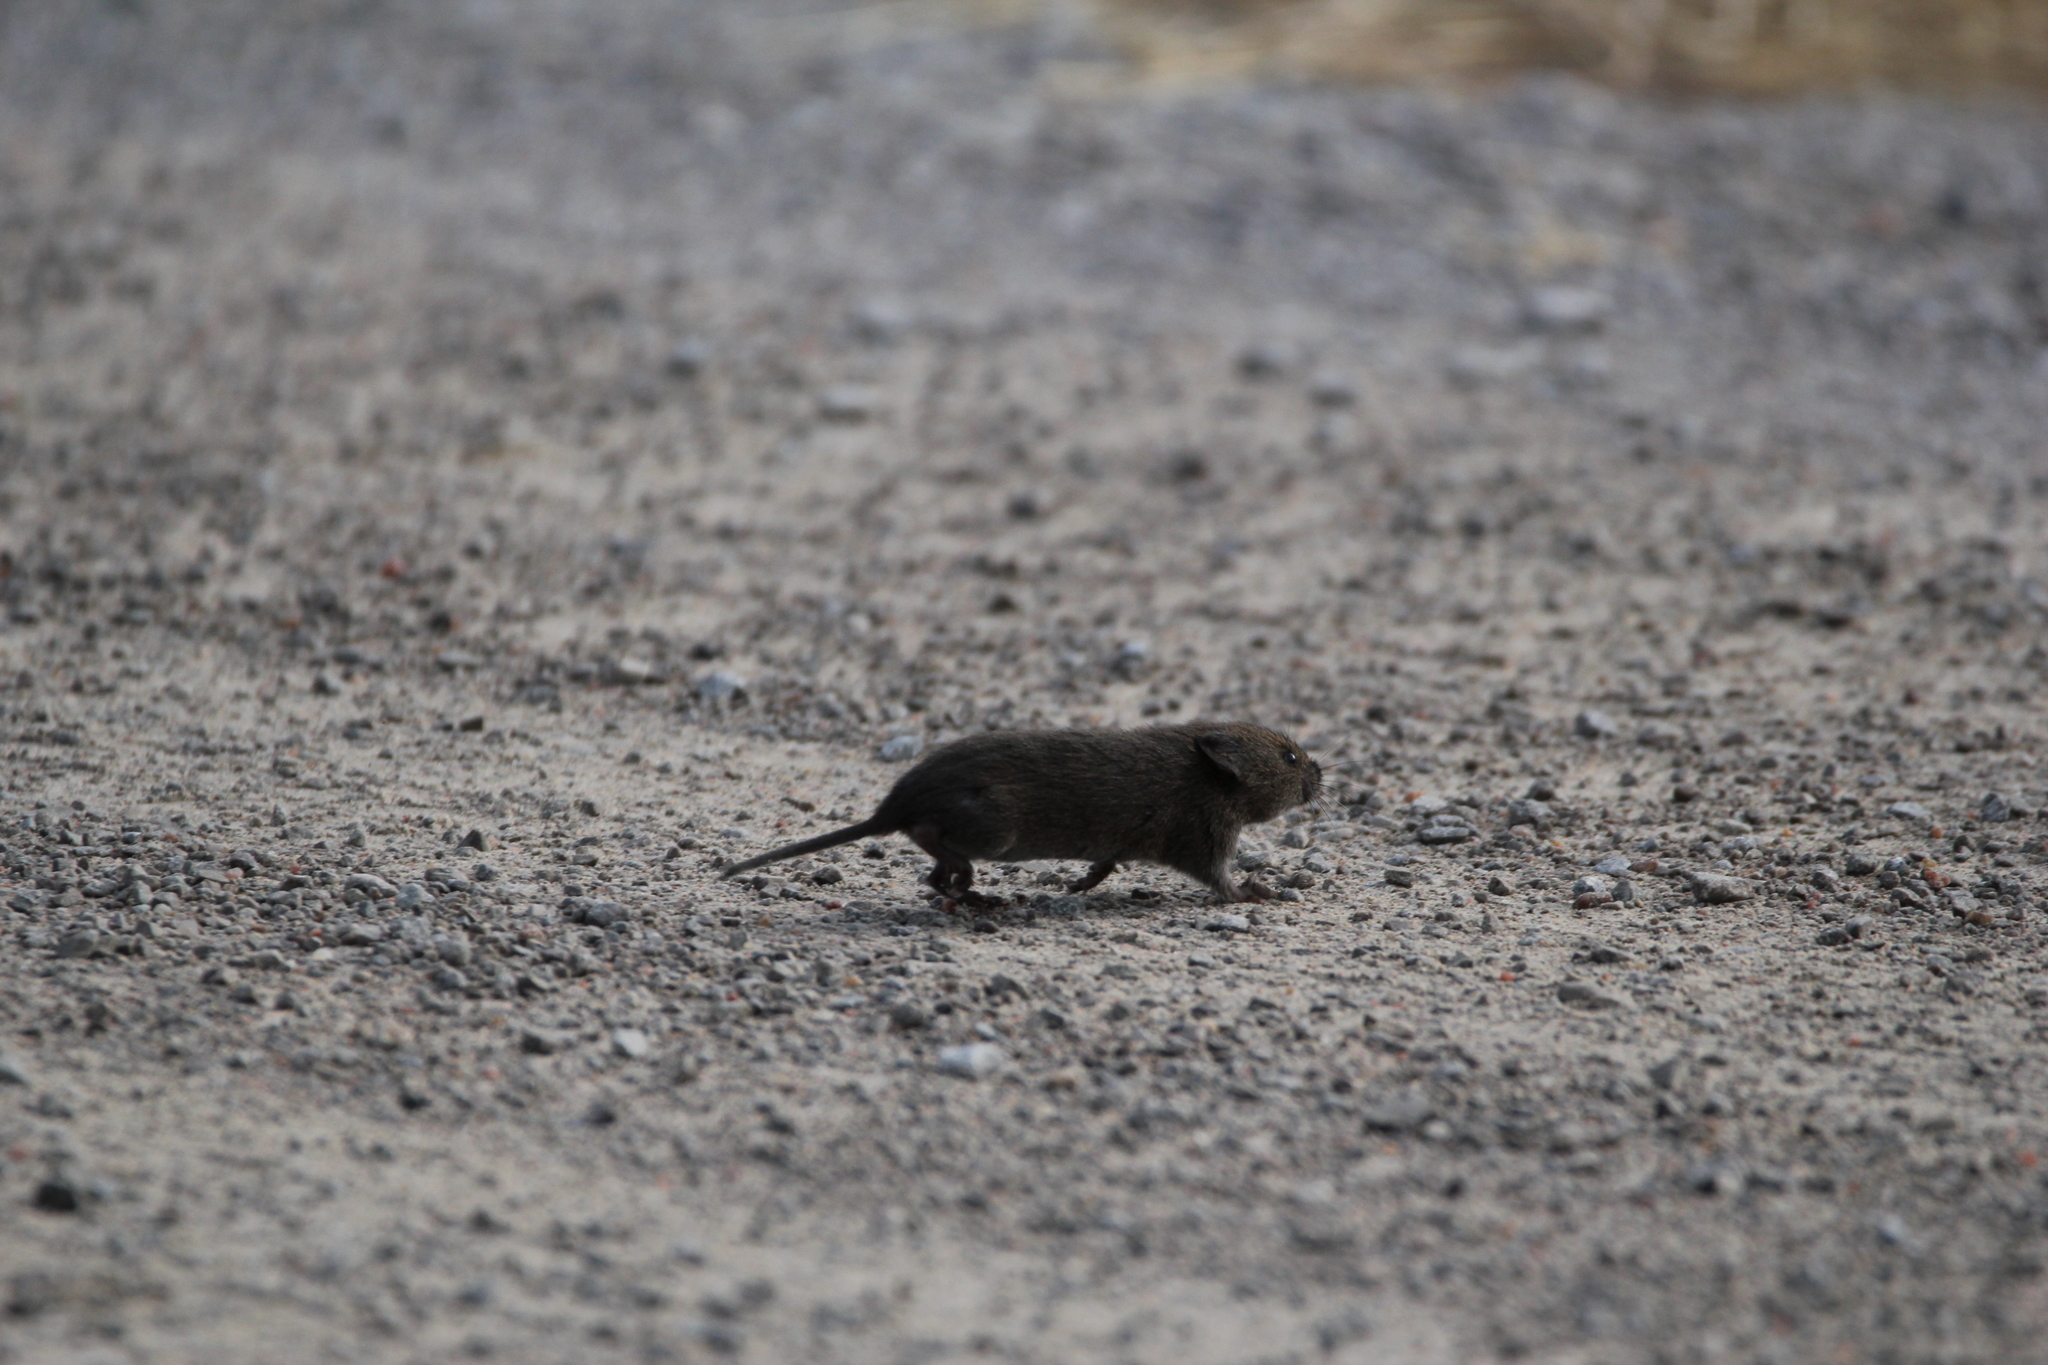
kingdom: Animalia
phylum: Chordata
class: Mammalia
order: Rodentia
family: Cricetidae
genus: Microtus
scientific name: Microtus pennsylvanicus
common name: Meadow vole
